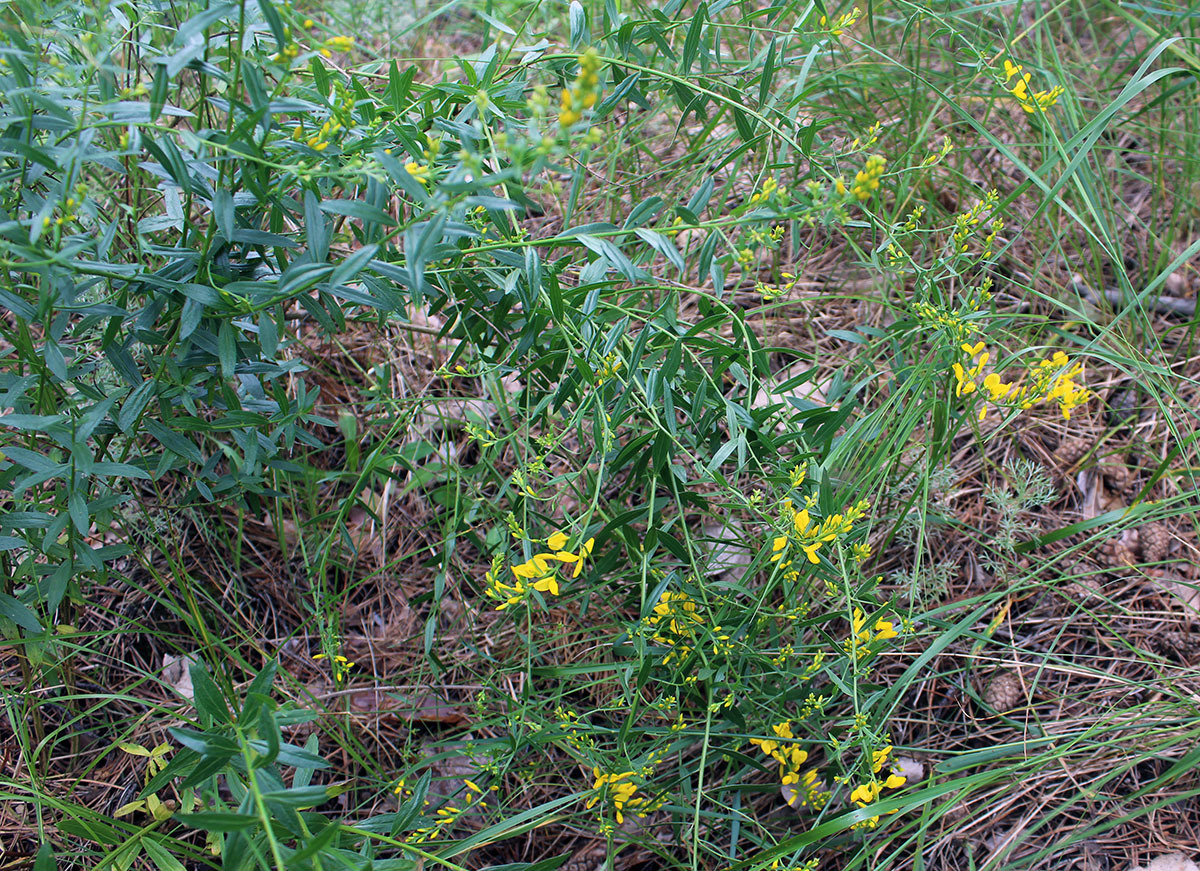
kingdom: Plantae
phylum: Tracheophyta
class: Magnoliopsida
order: Fabales
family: Fabaceae
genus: Genista
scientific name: Genista tinctoria
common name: Dyer's greenweed
